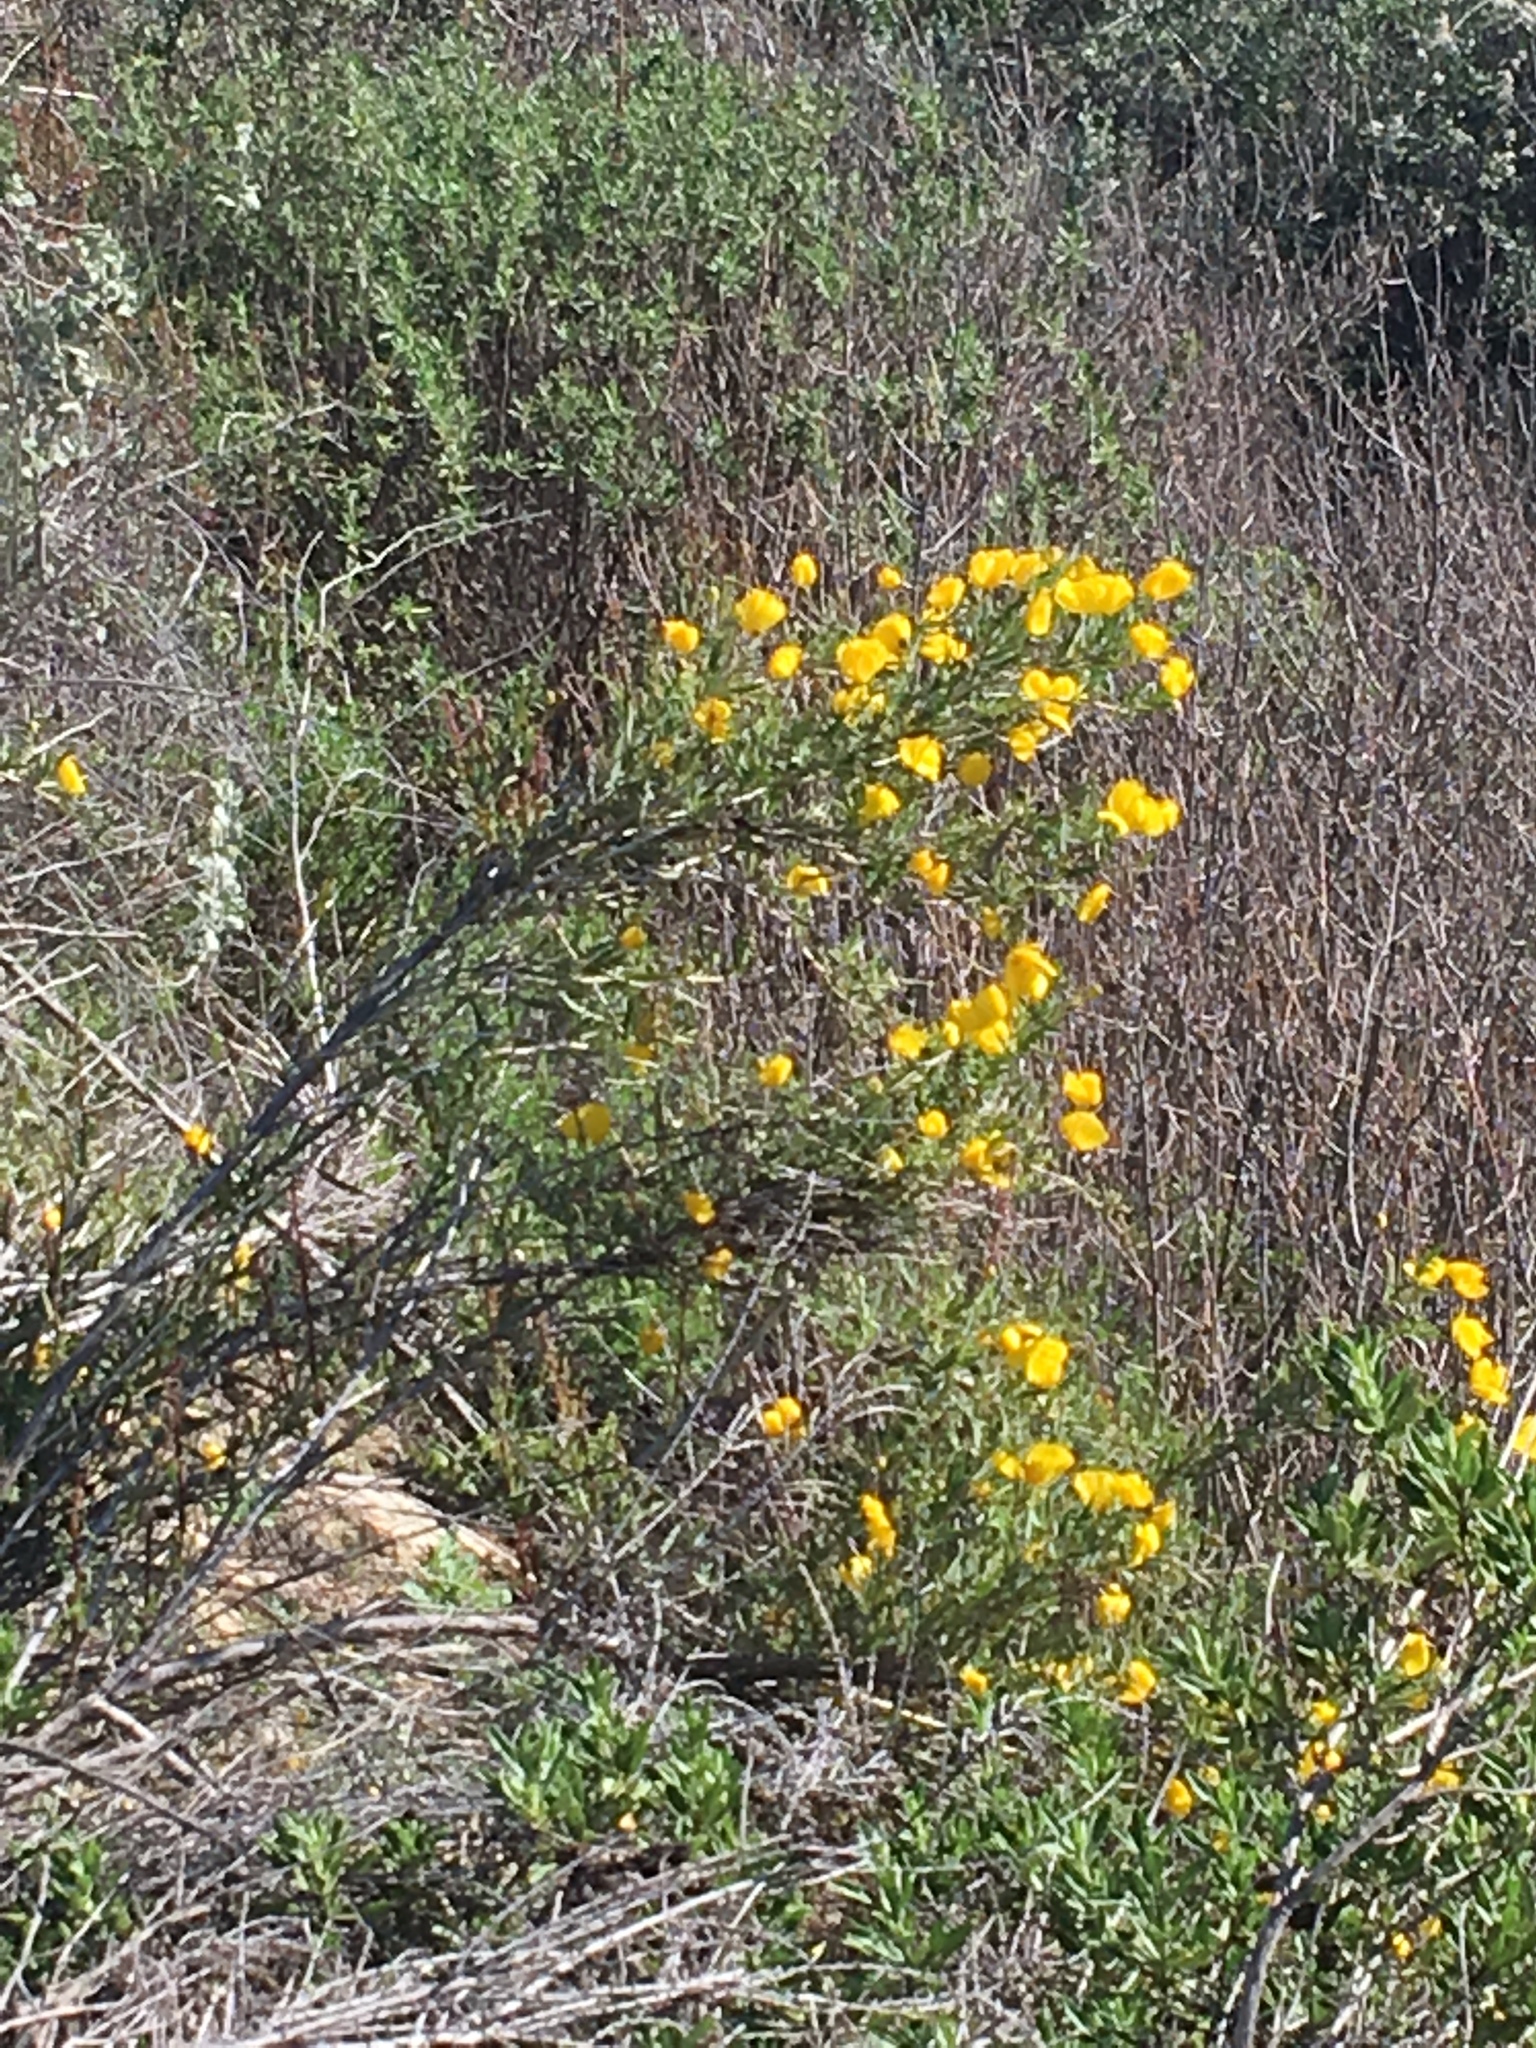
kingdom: Plantae
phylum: Tracheophyta
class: Magnoliopsida
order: Ranunculales
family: Papaveraceae
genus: Dendromecon
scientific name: Dendromecon rigida
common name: Tree poppy
